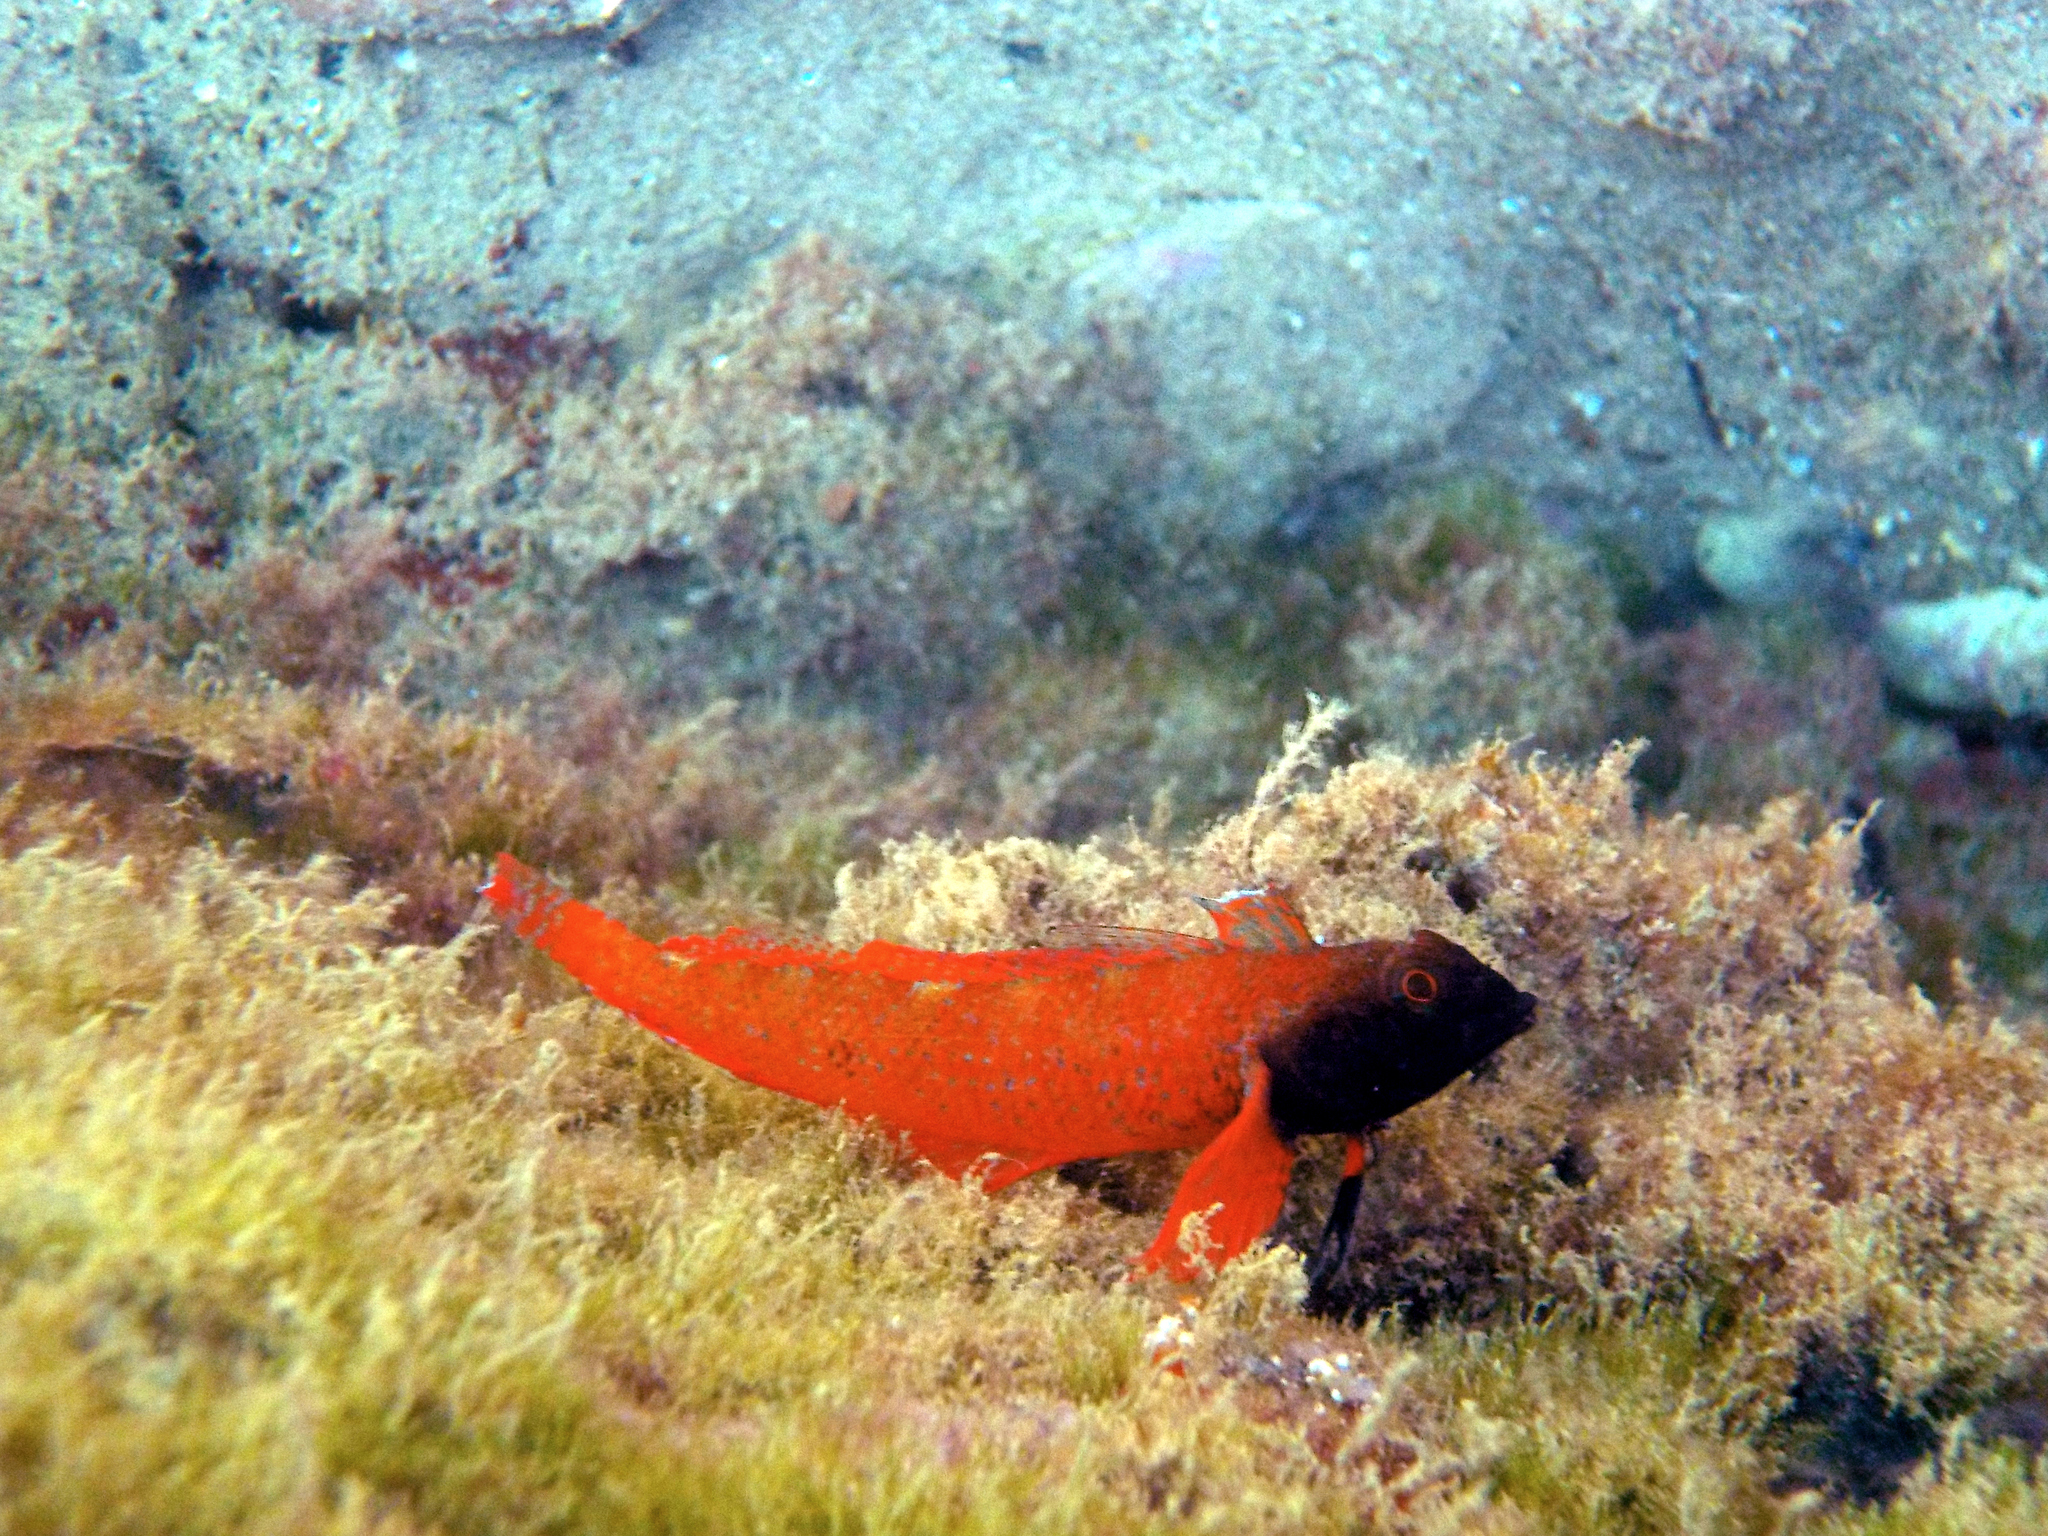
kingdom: Animalia
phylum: Chordata
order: Perciformes
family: Tripterygiidae
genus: Tripterygion
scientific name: Tripterygion tripteronotum
